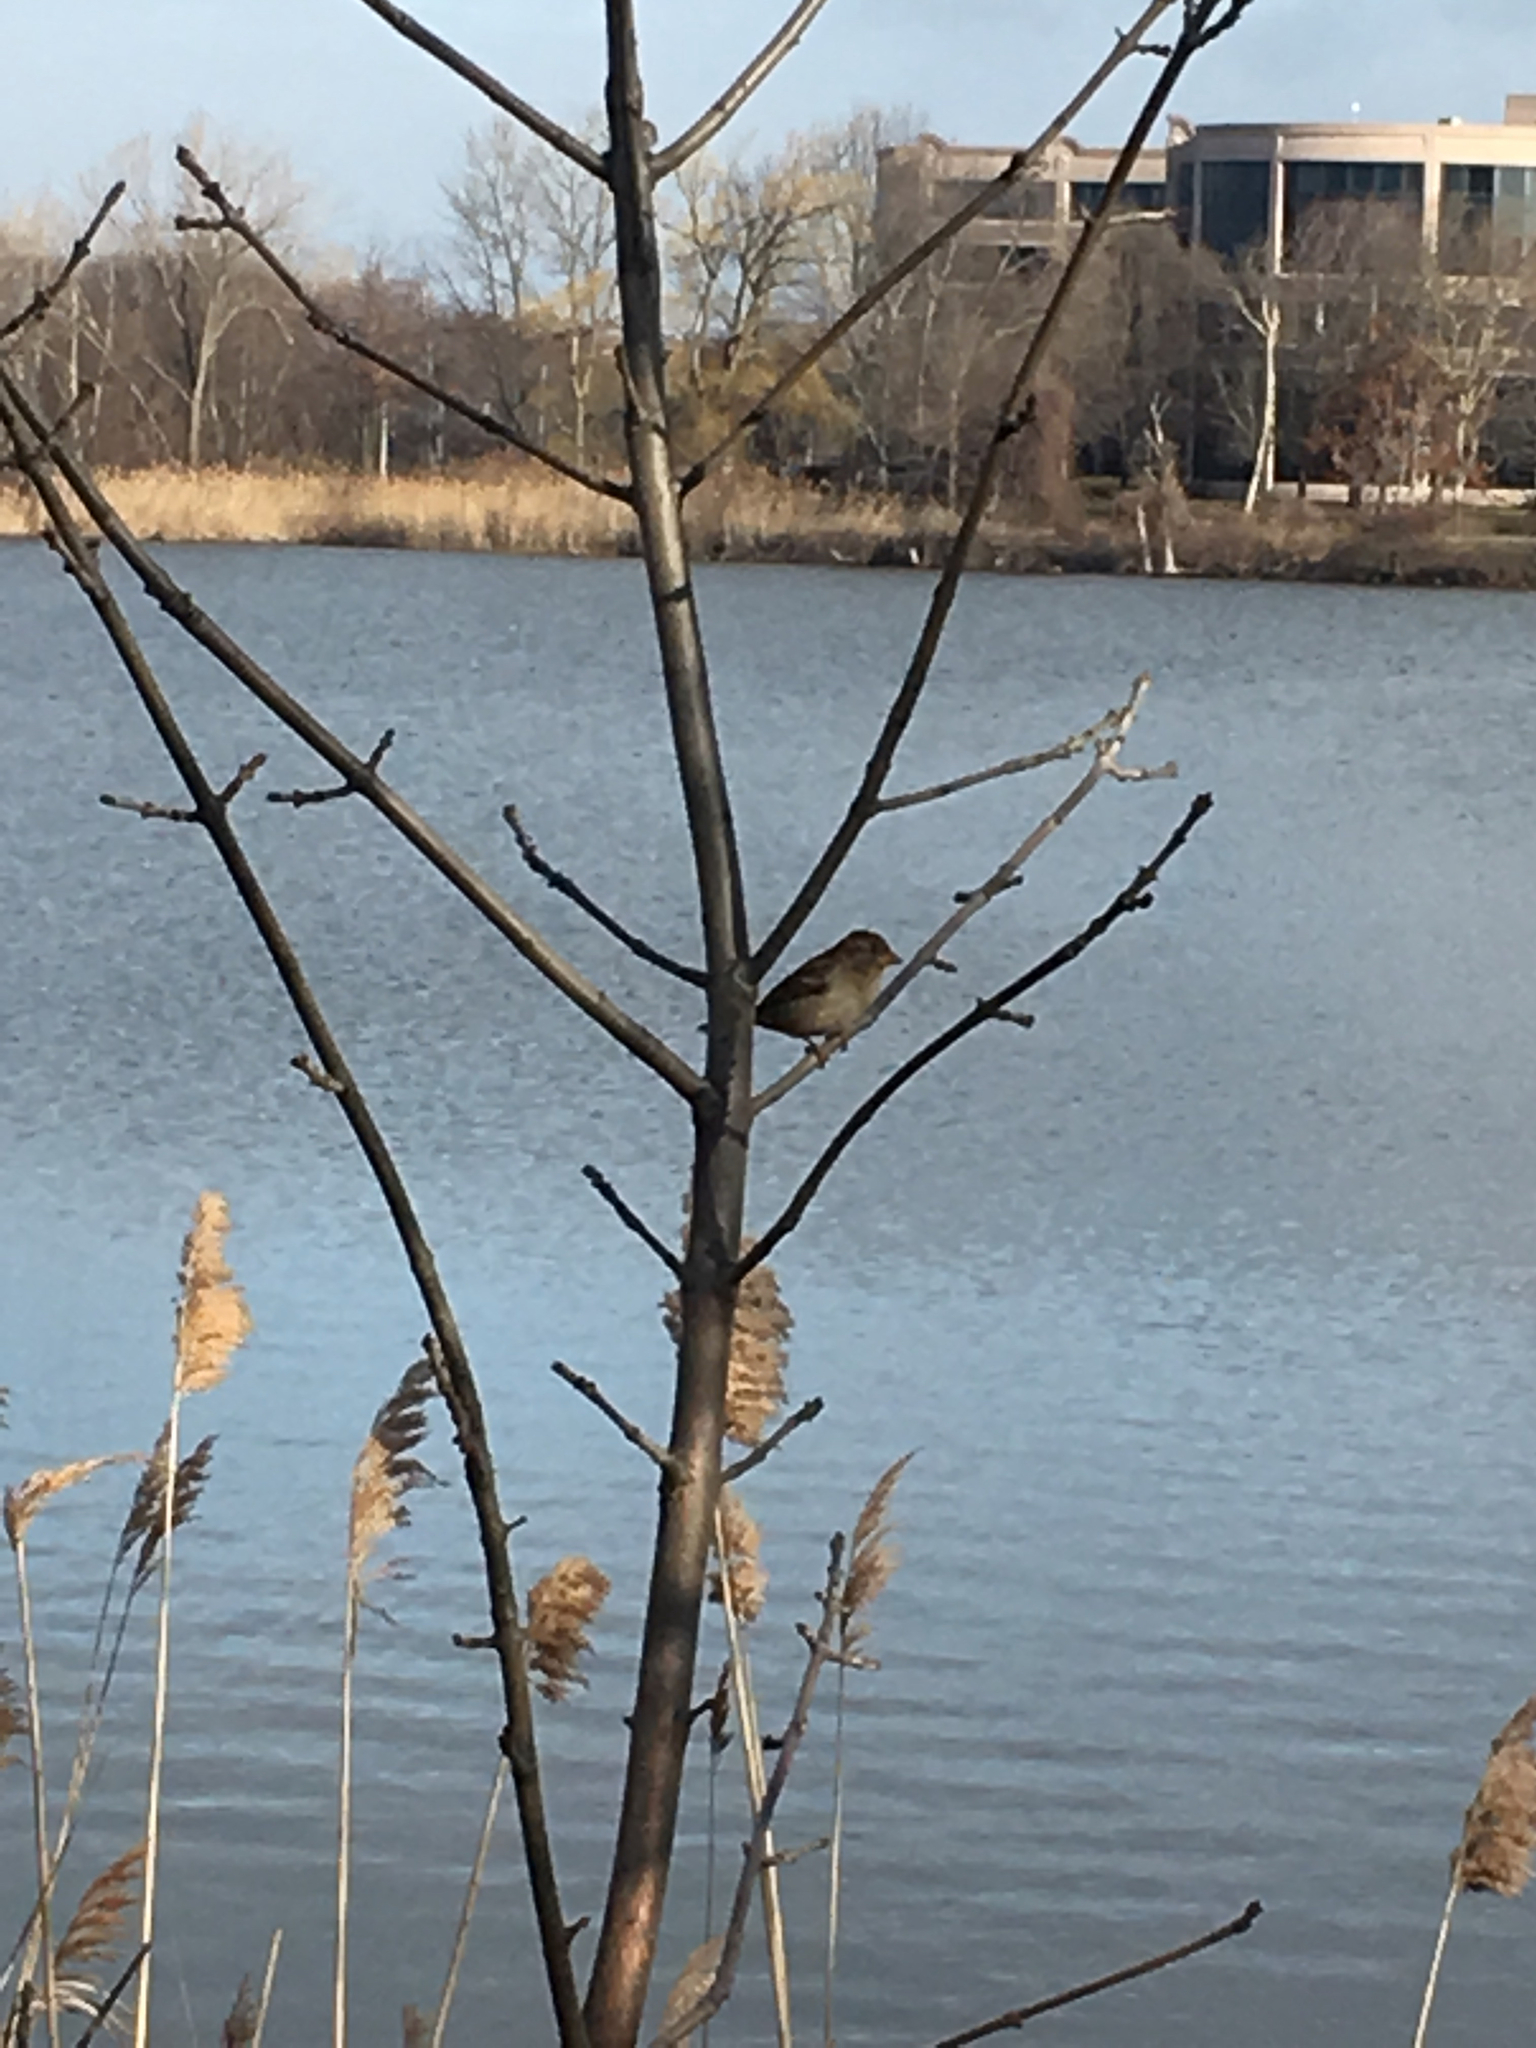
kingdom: Animalia
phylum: Chordata
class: Aves
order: Passeriformes
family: Passeridae
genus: Passer
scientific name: Passer domesticus
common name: House sparrow
